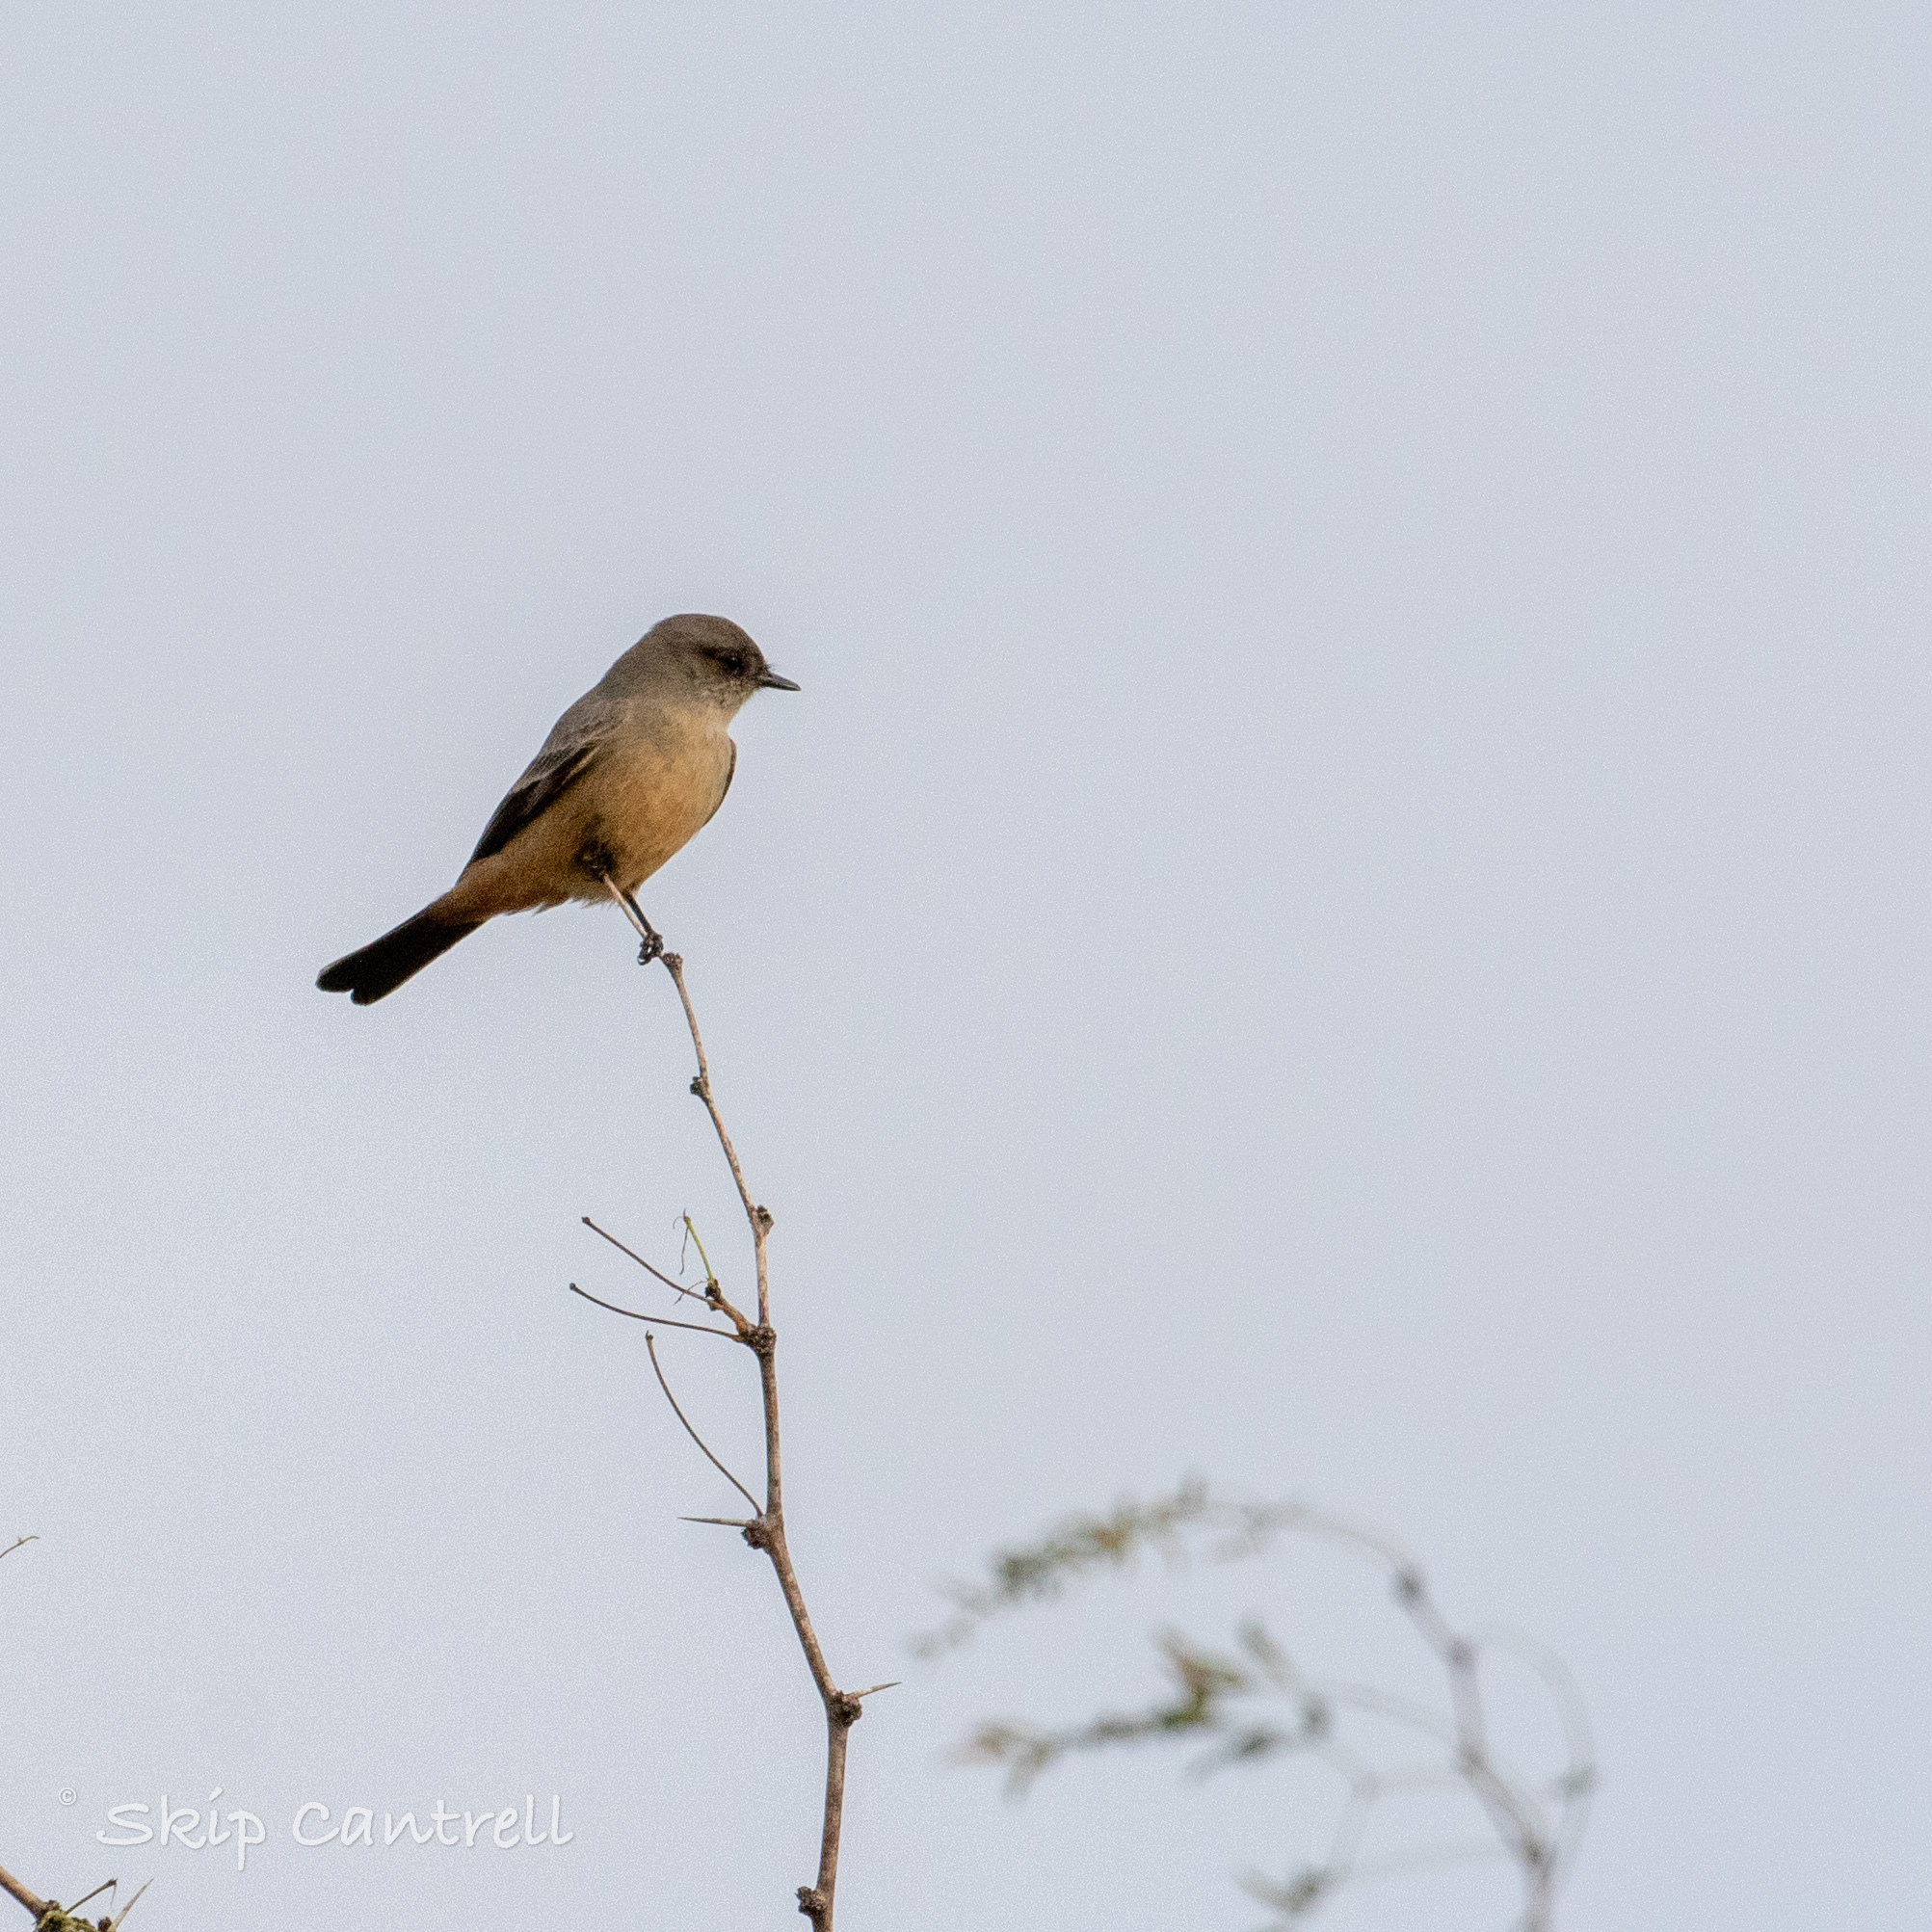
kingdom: Animalia
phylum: Chordata
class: Aves
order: Passeriformes
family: Tyrannidae
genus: Sayornis
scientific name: Sayornis saya
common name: Say's phoebe
